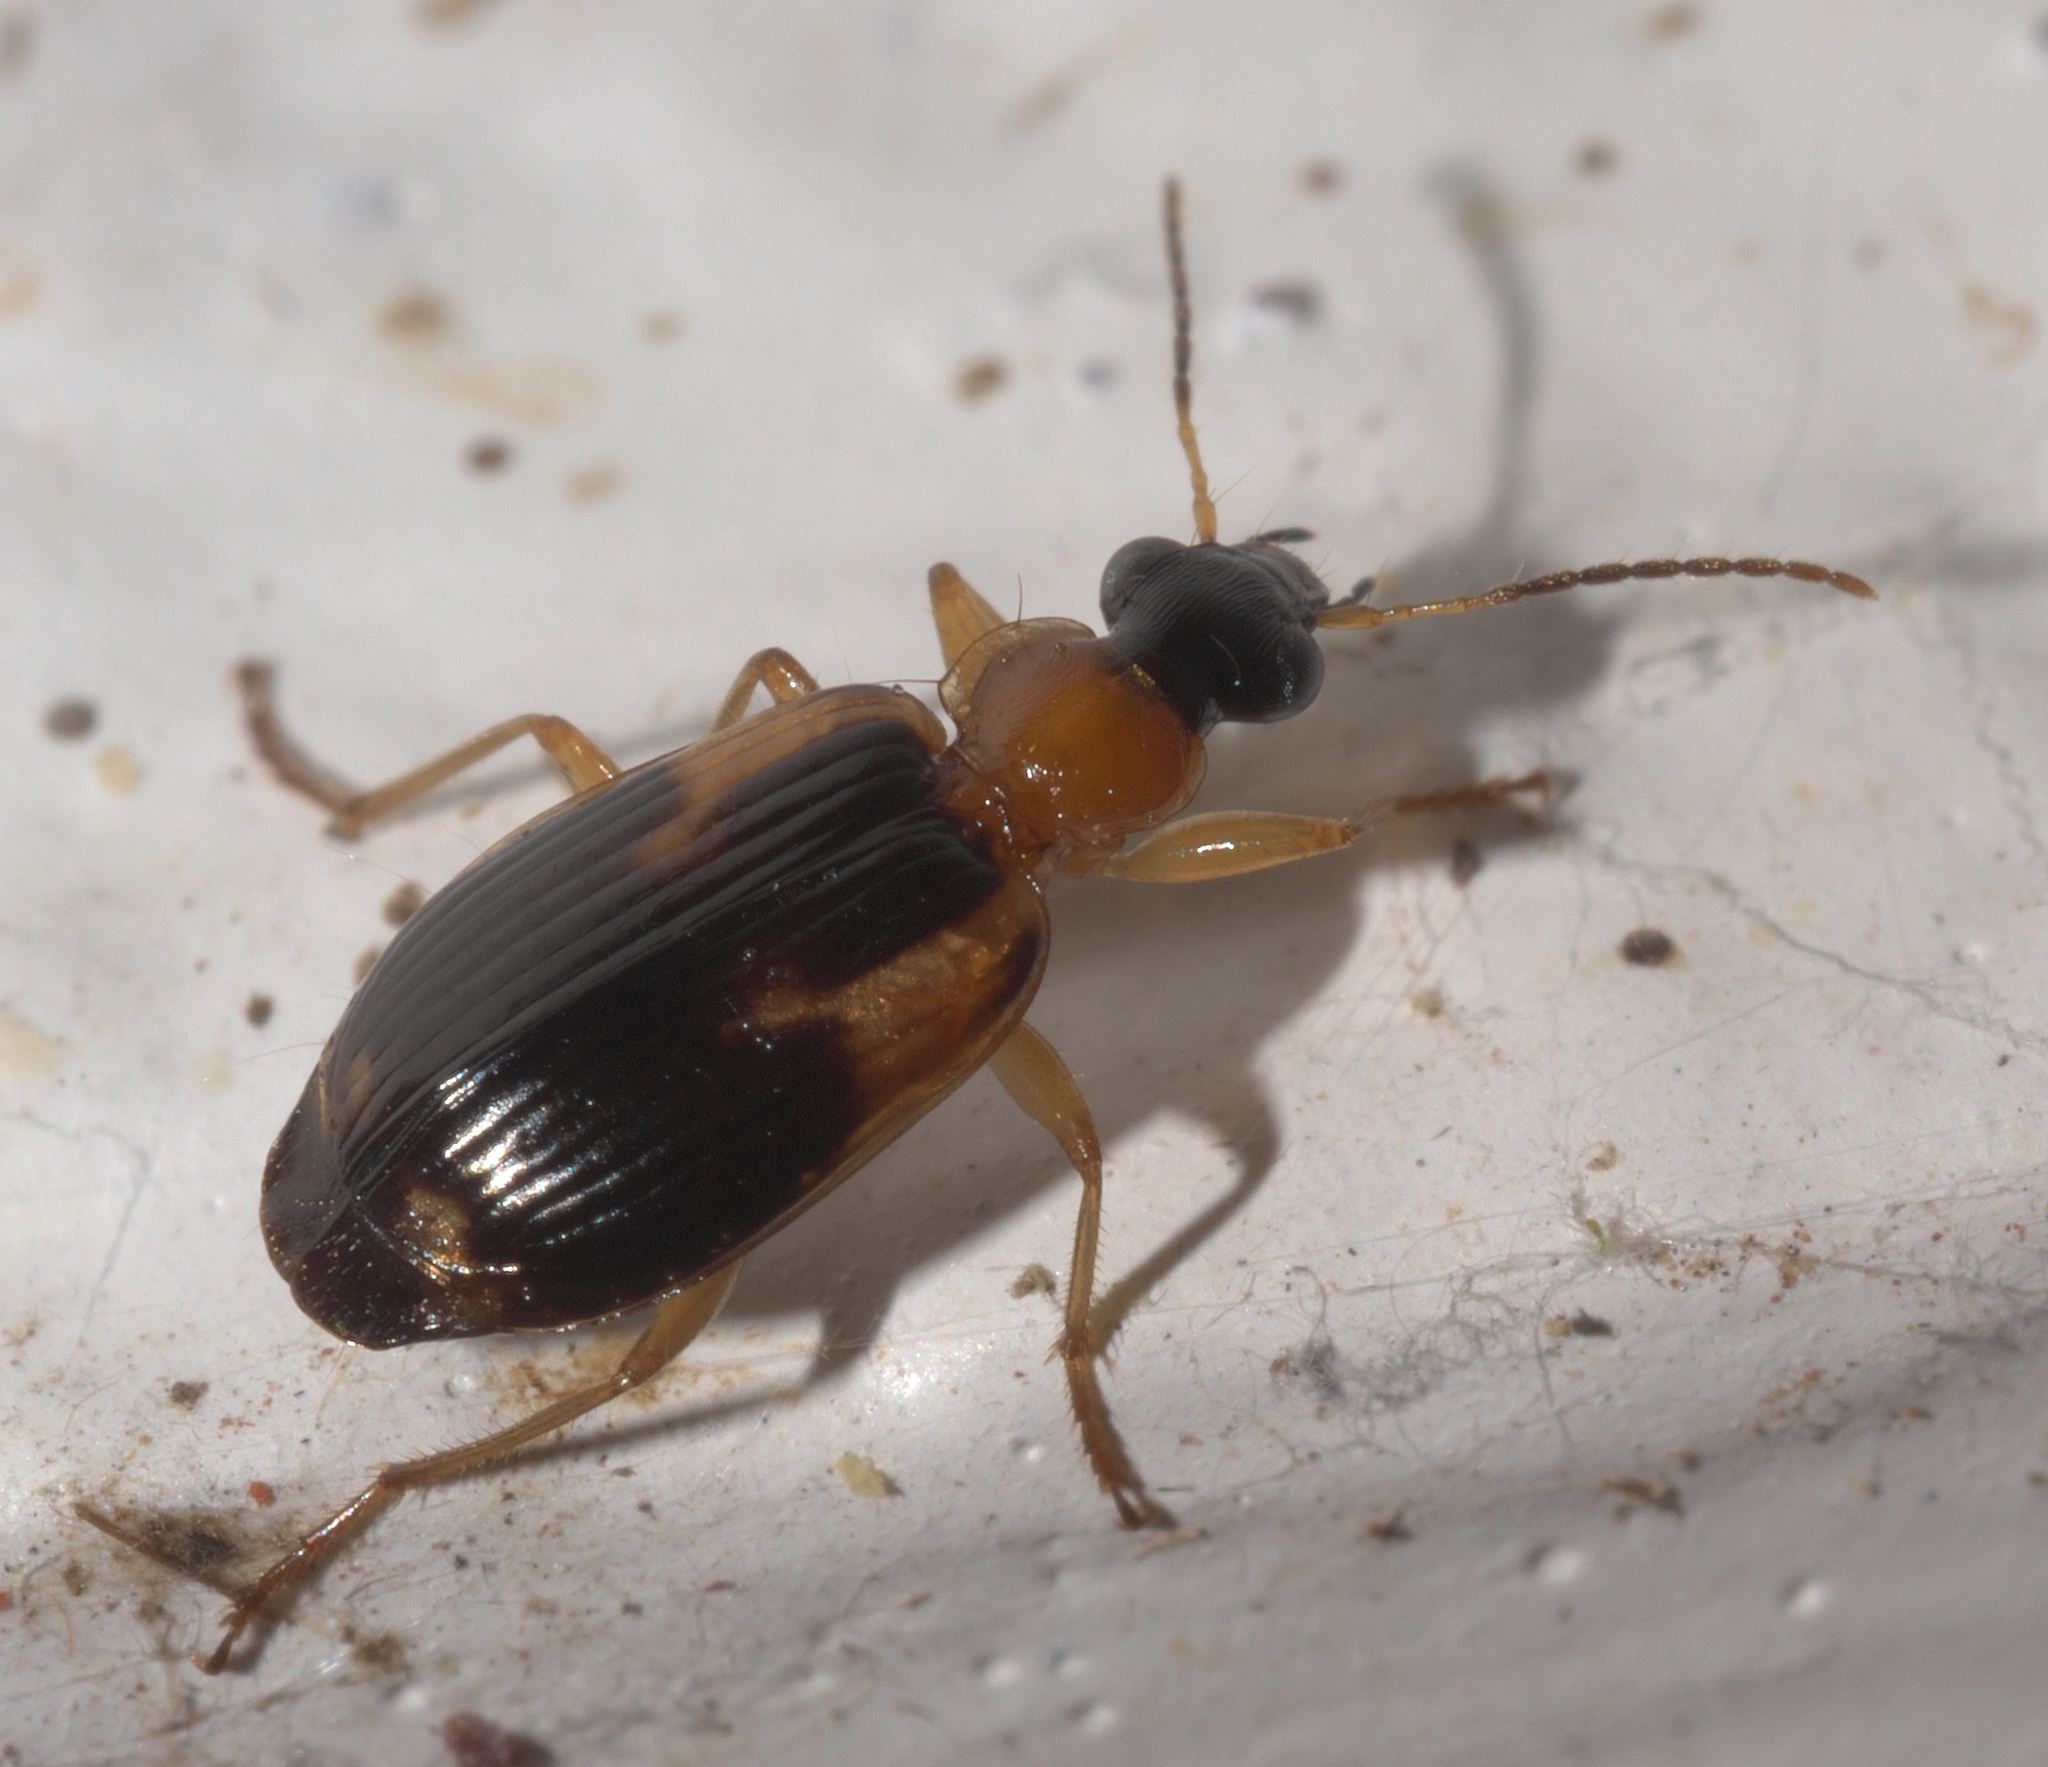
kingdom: Animalia
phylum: Arthropoda
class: Insecta
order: Coleoptera
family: Carabidae
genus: Lebia
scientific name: Lebia analis
